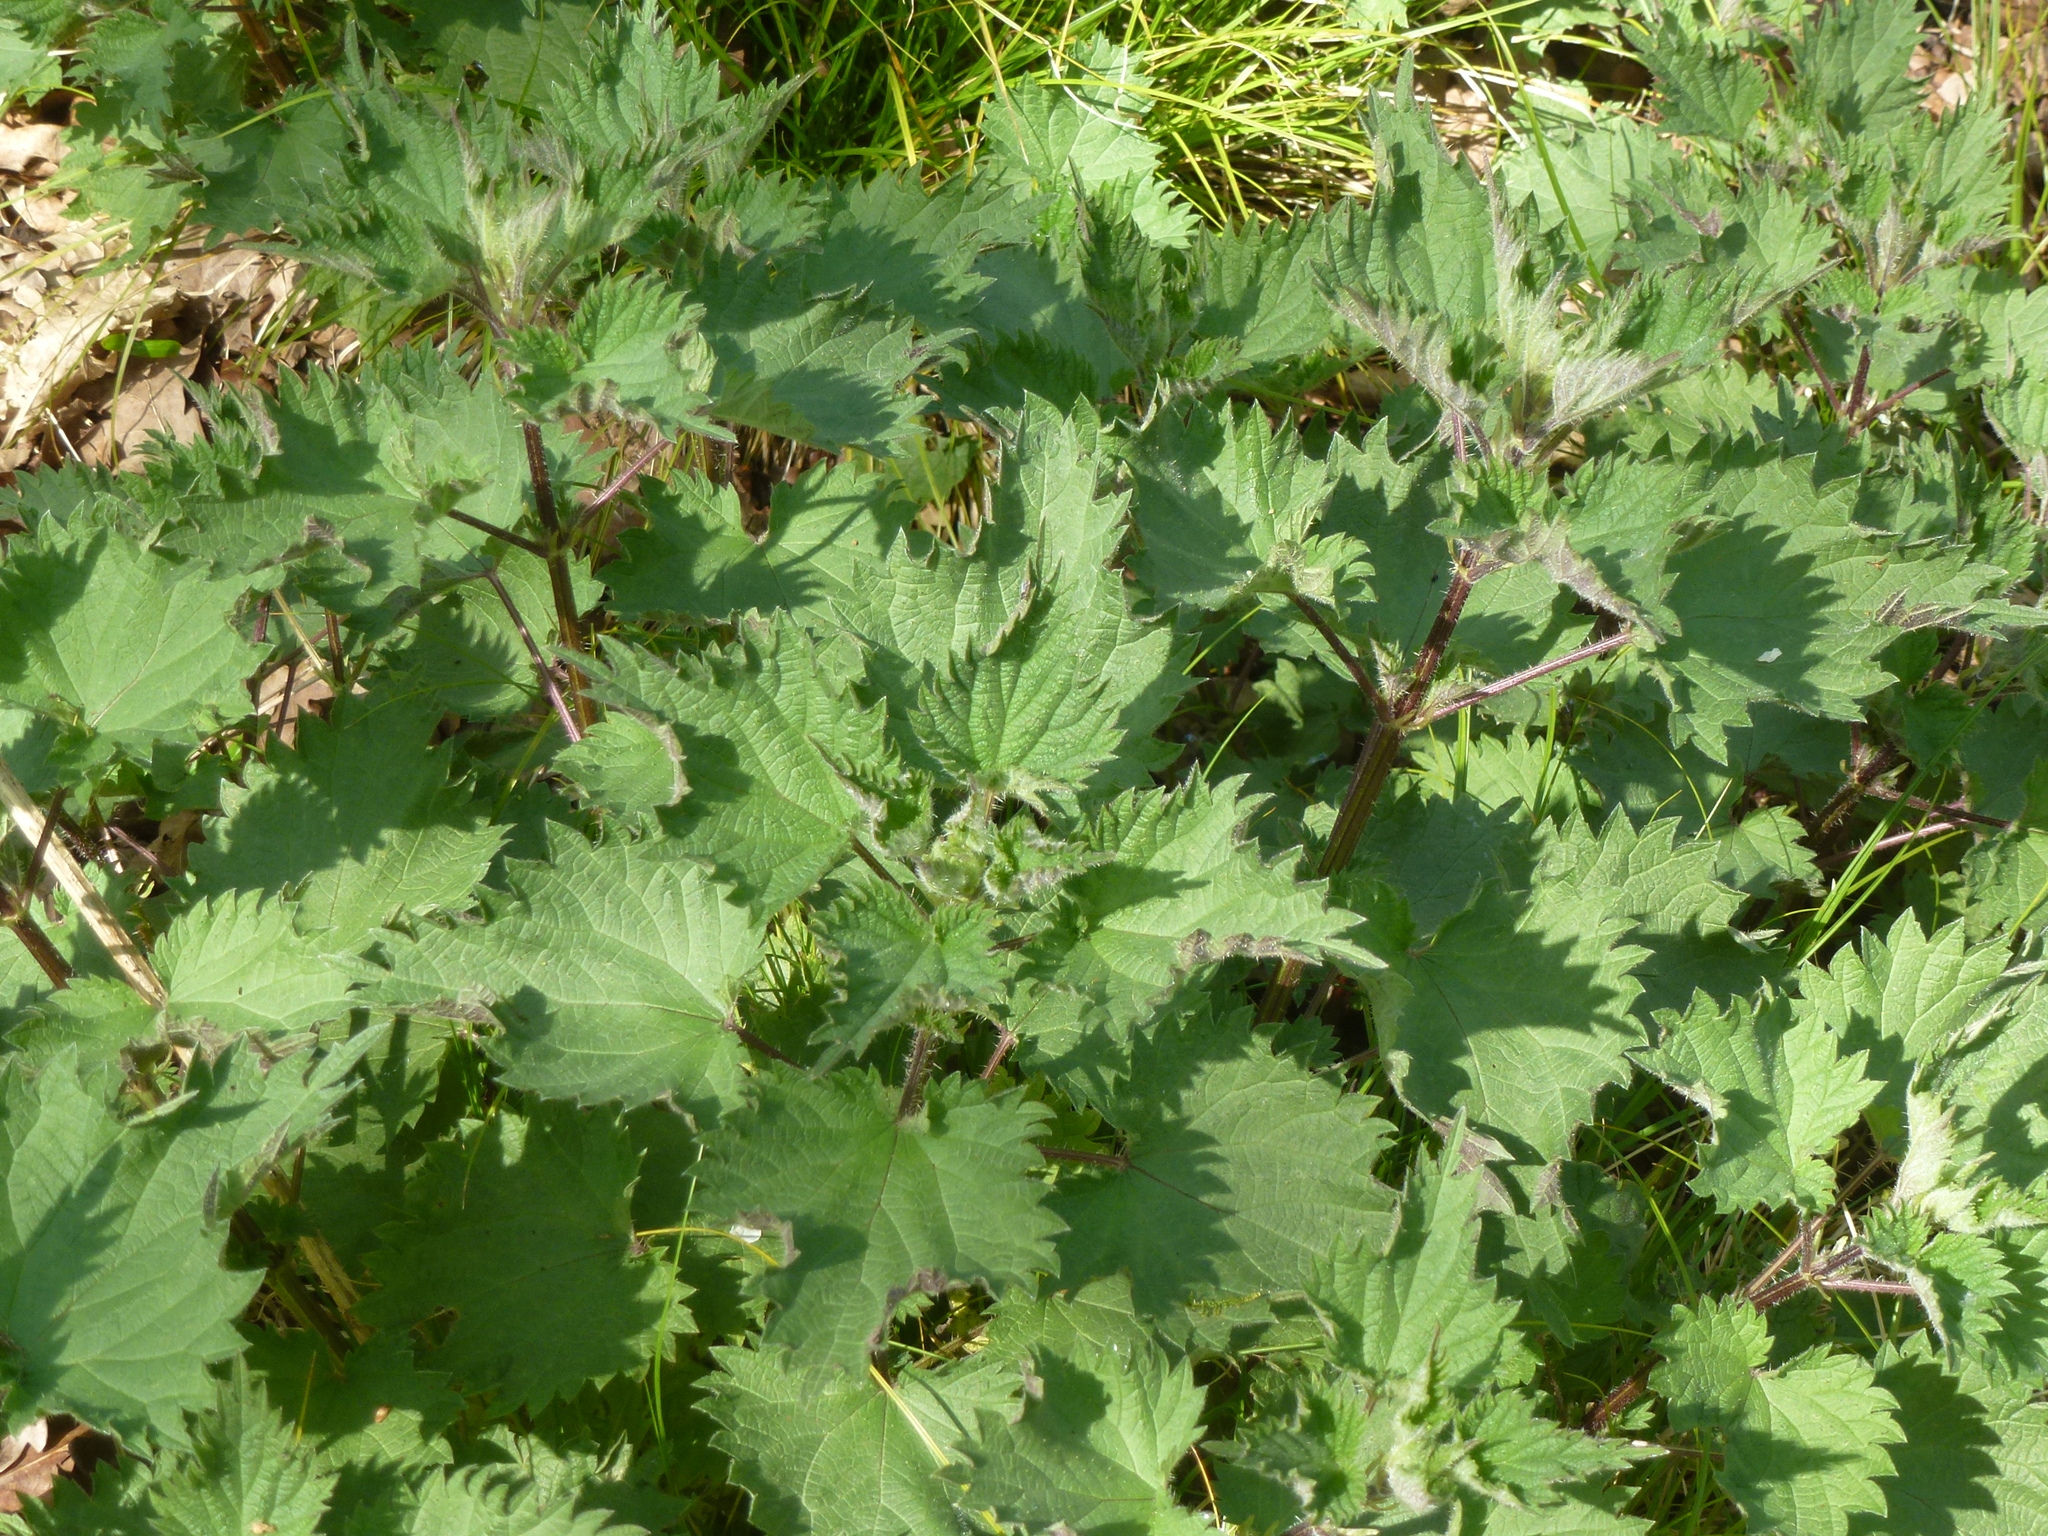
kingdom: Plantae
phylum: Tracheophyta
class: Magnoliopsida
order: Rosales
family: Urticaceae
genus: Urtica
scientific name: Urtica dioica
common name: Common nettle
